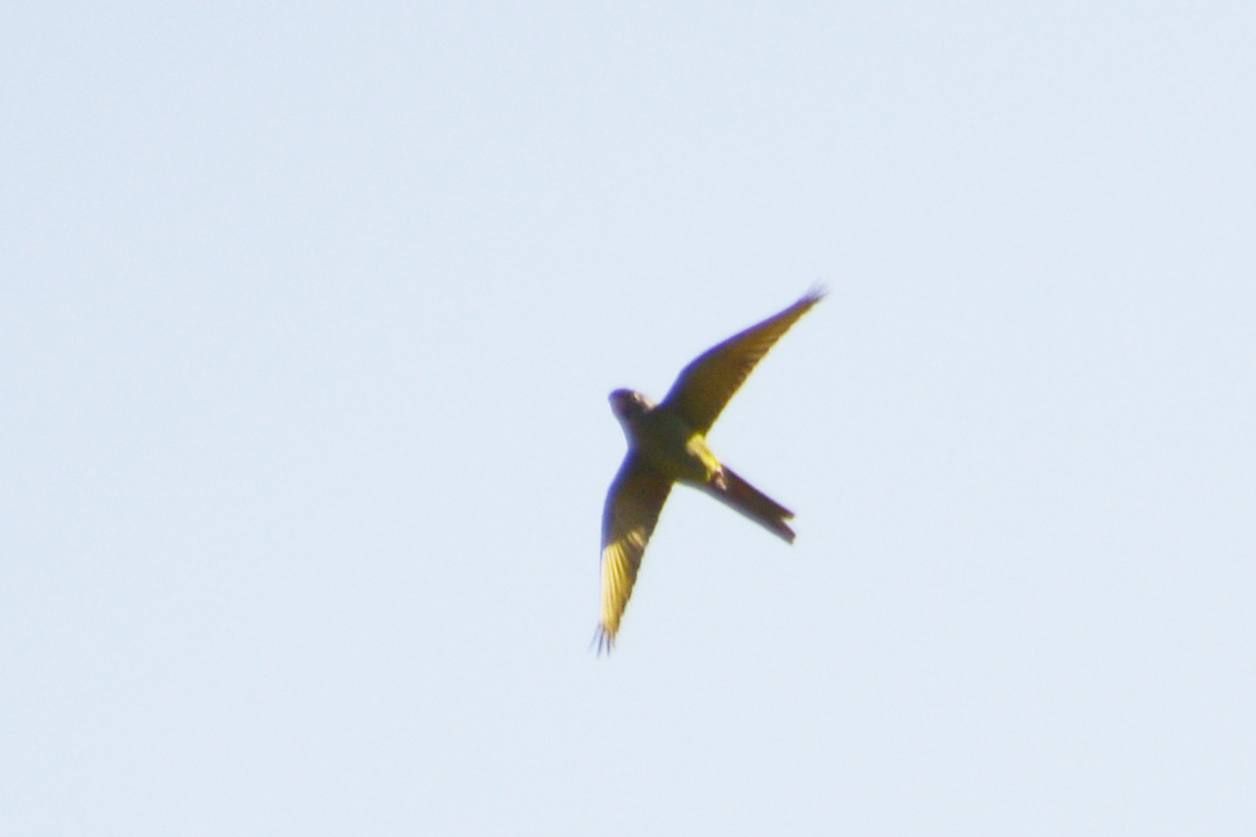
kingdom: Animalia
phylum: Chordata
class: Aves
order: Psittaciformes
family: Psittacidae
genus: Aratinga
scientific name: Aratinga acuticaudata
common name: Blue-crowned parakeet
